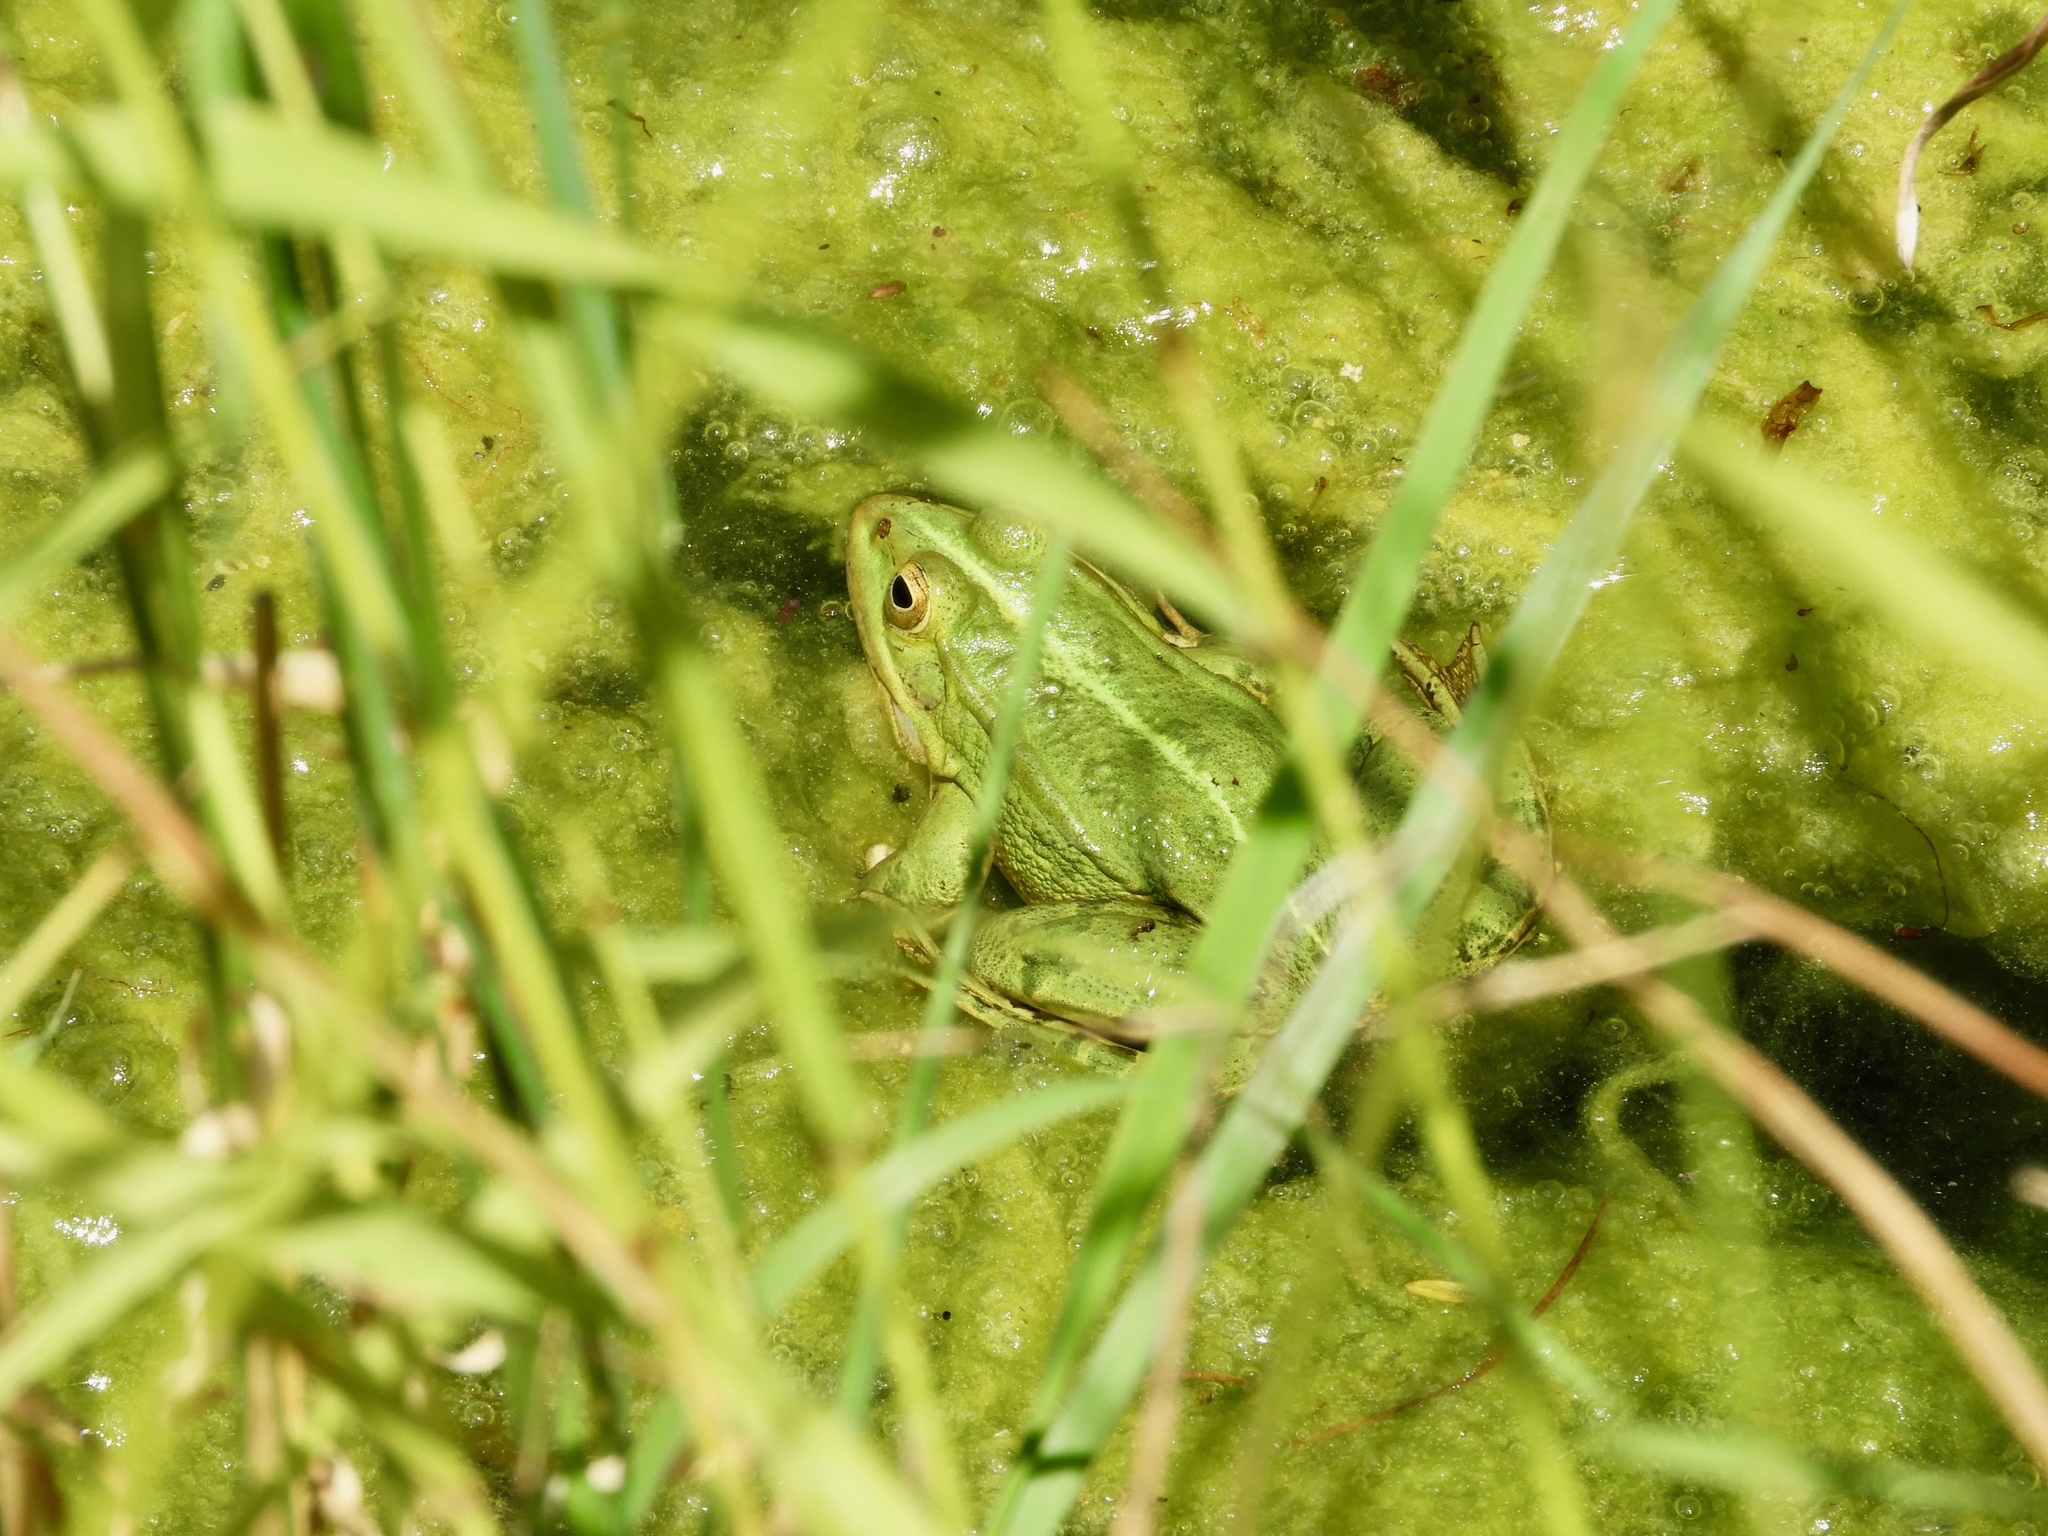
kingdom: Animalia
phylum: Chordata
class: Amphibia
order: Anura
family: Ranidae
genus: Pelophylax
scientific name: Pelophylax
